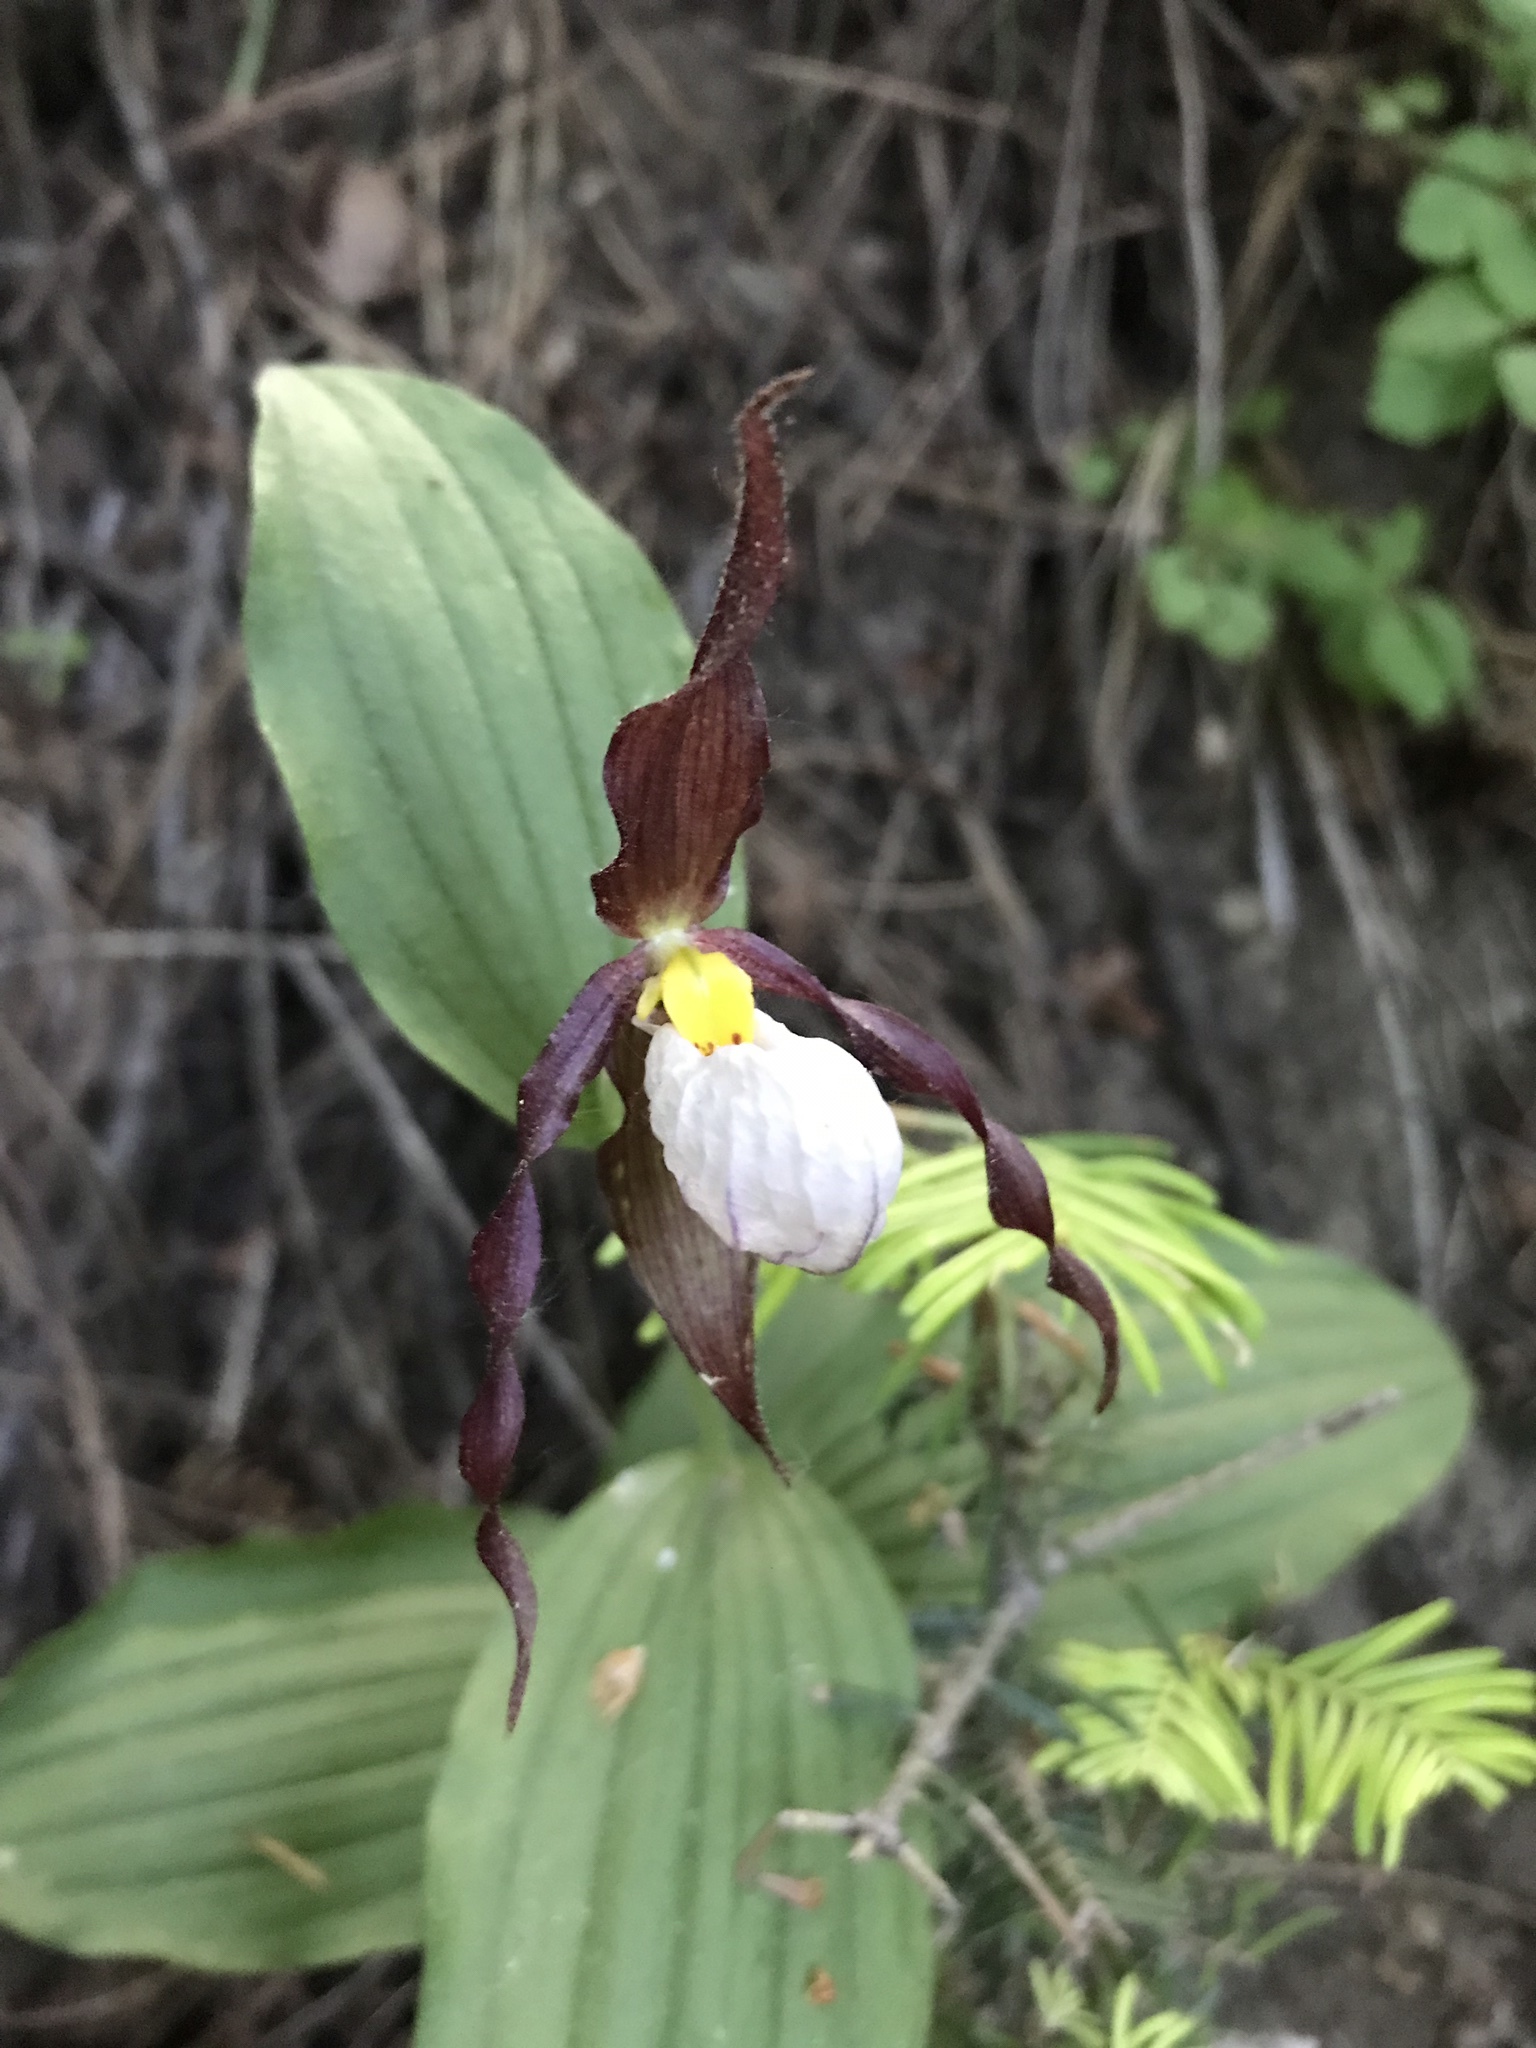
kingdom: Plantae
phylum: Tracheophyta
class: Liliopsida
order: Asparagales
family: Orchidaceae
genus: Cypripedium
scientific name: Cypripedium montanum
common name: Mountain lady's-slipper
